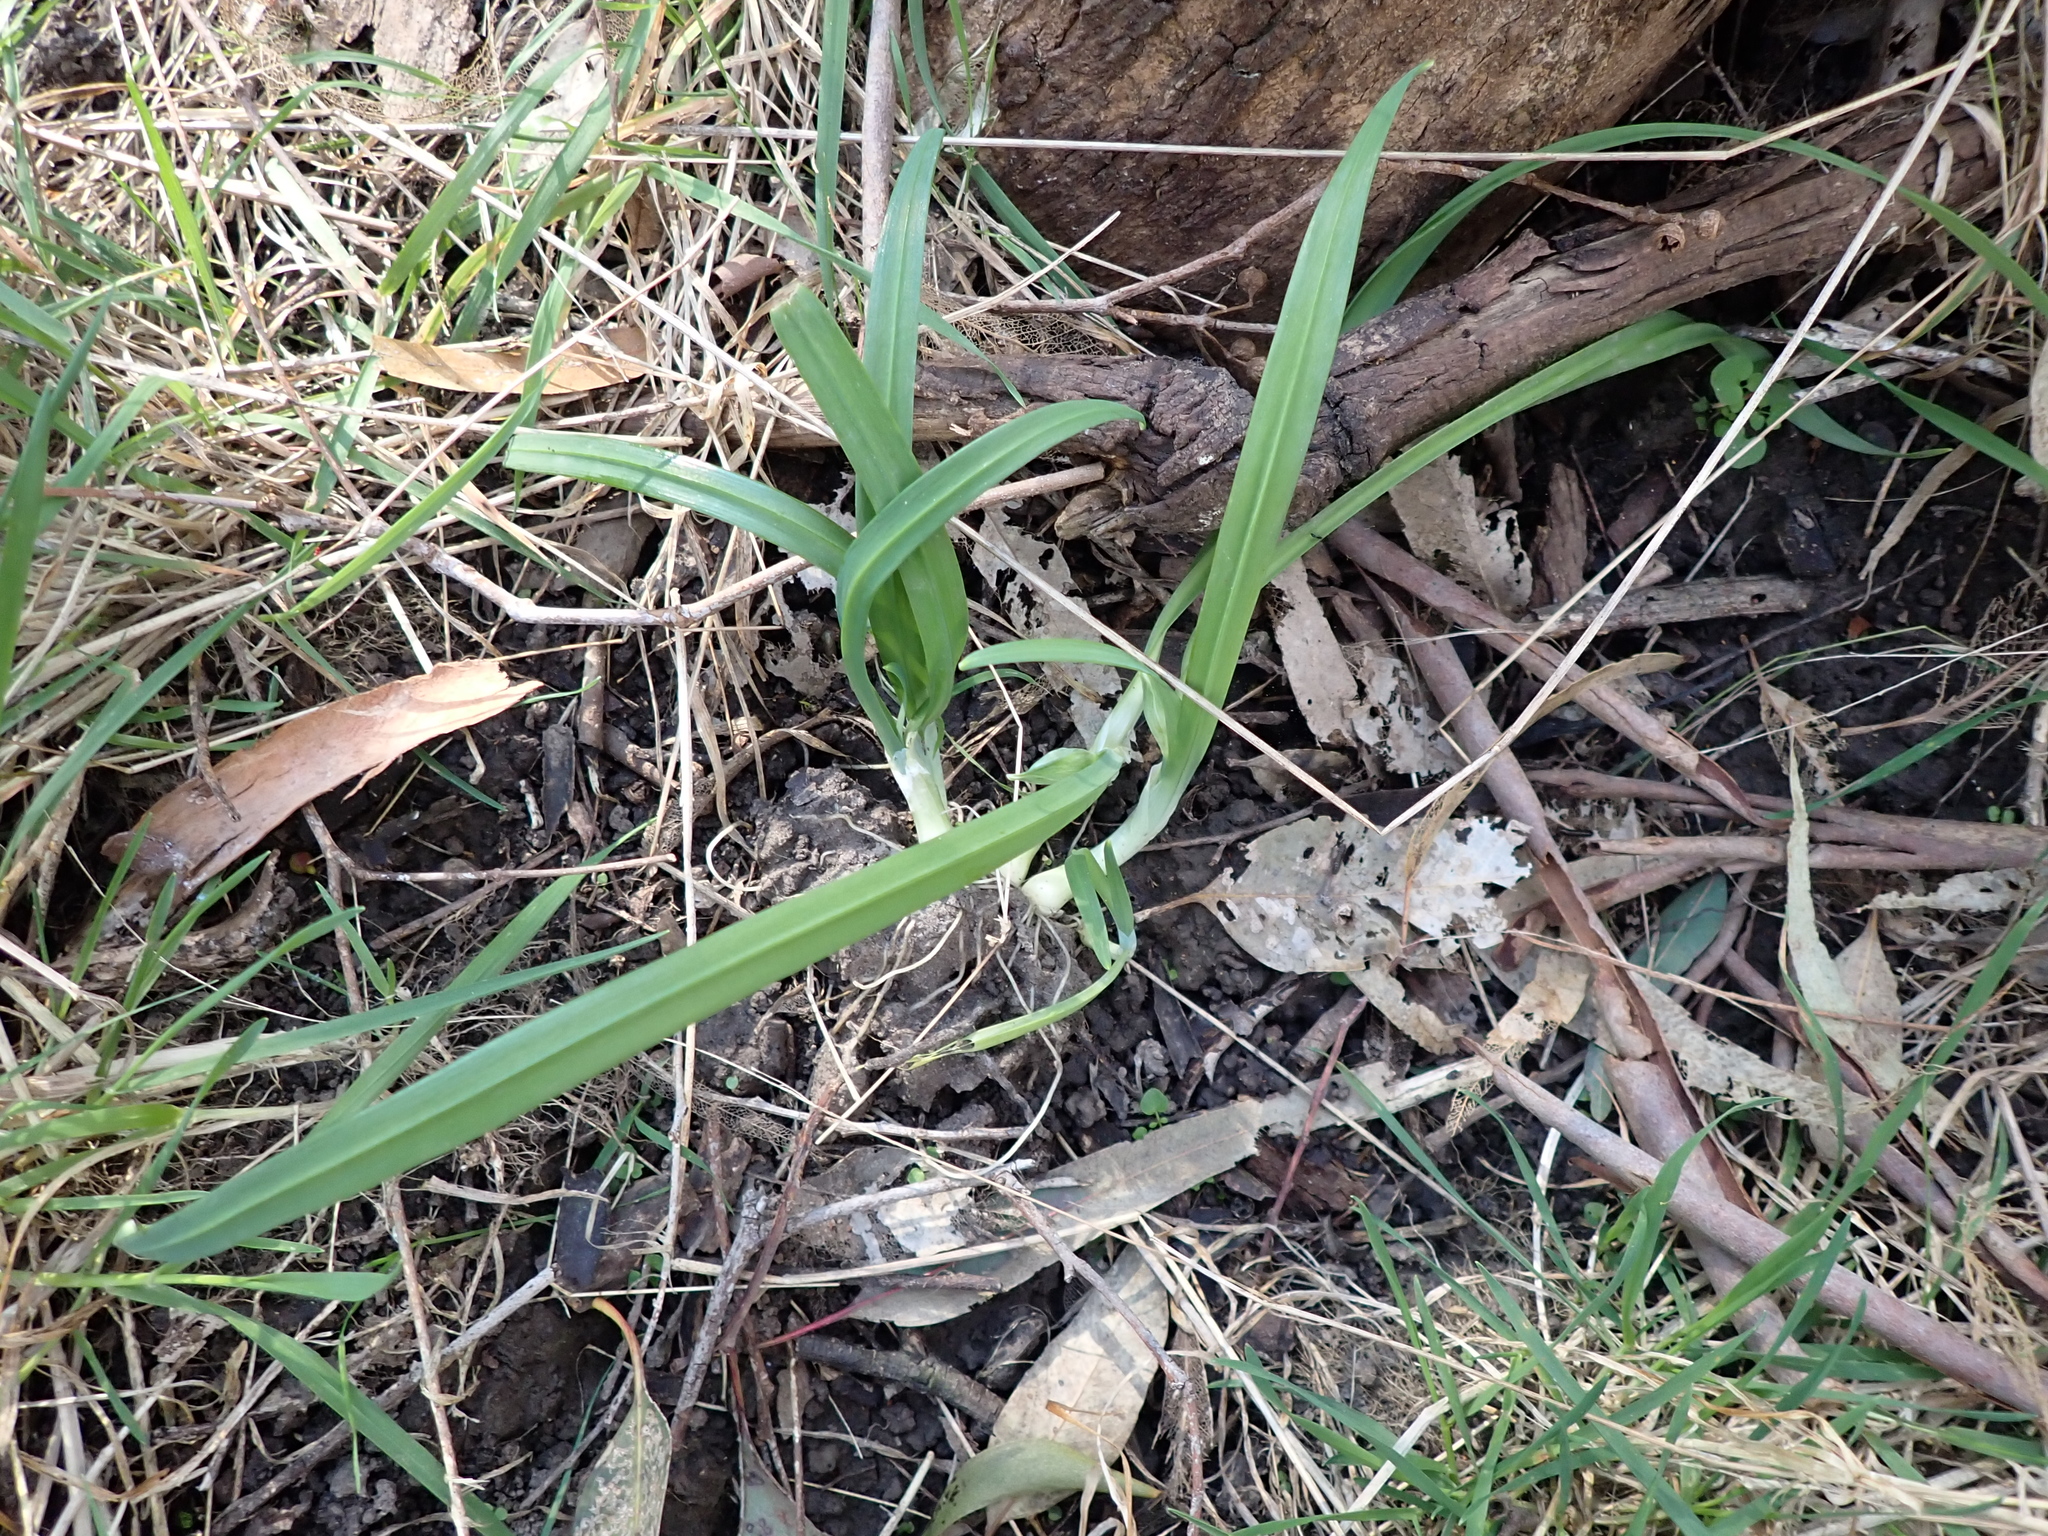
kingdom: Plantae
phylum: Tracheophyta
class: Liliopsida
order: Asparagales
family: Amaryllidaceae
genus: Allium
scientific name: Allium triquetrum
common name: Three-cornered garlic
